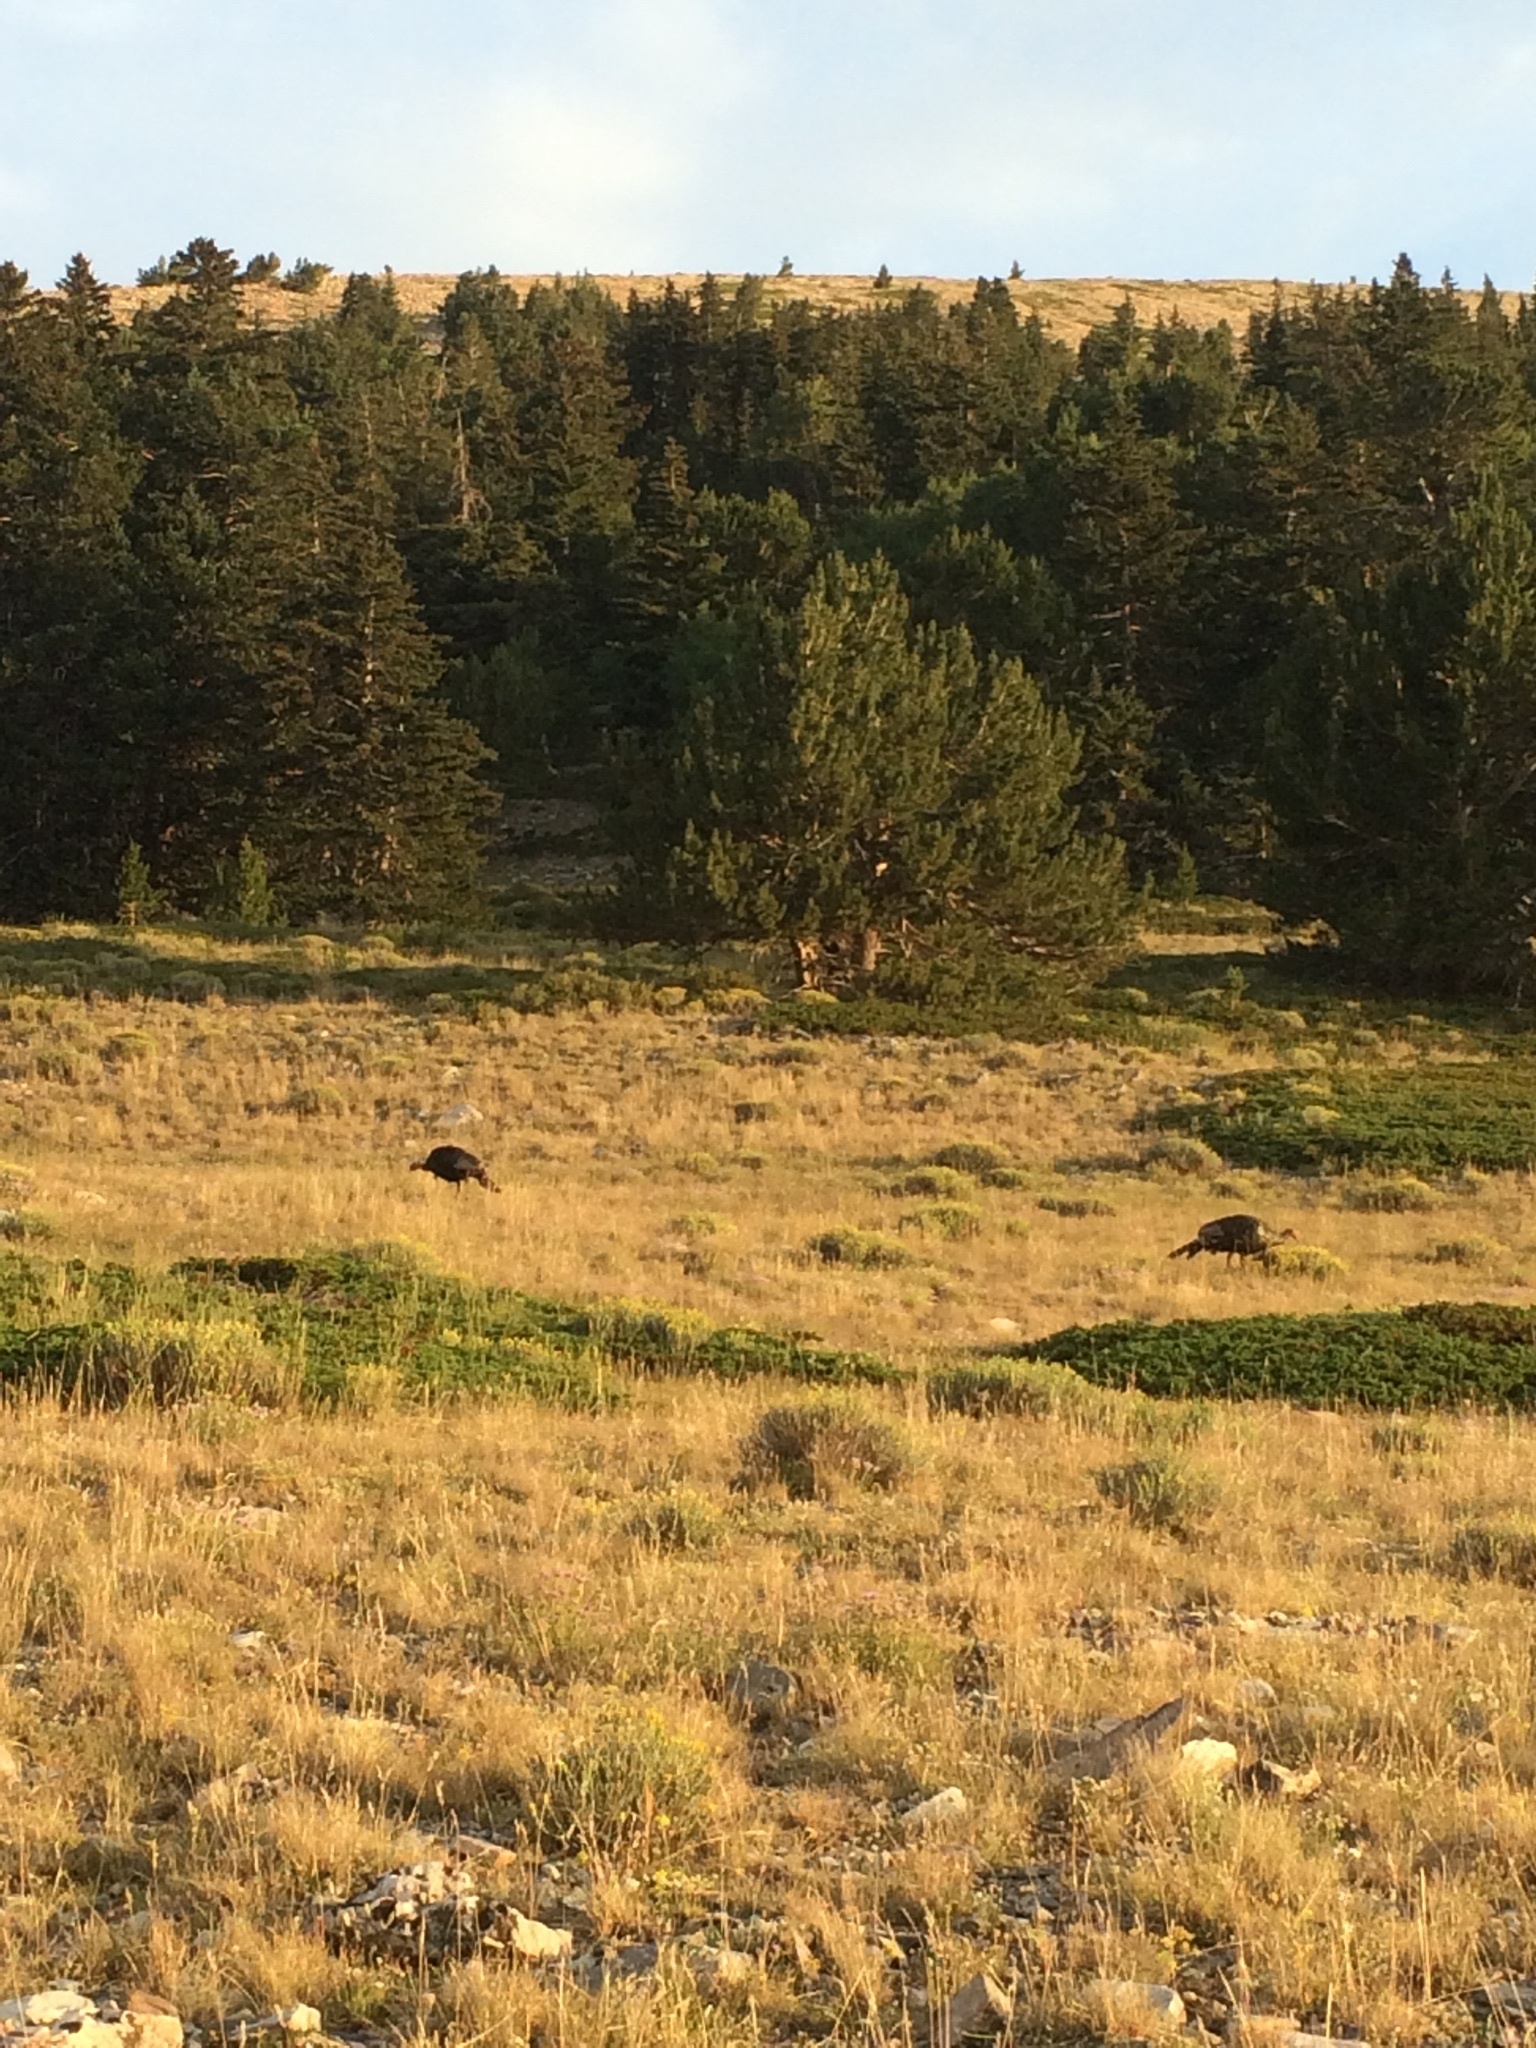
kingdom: Animalia
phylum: Chordata
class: Aves
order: Galliformes
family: Phasianidae
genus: Meleagris
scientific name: Meleagris gallopavo
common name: Wild turkey
